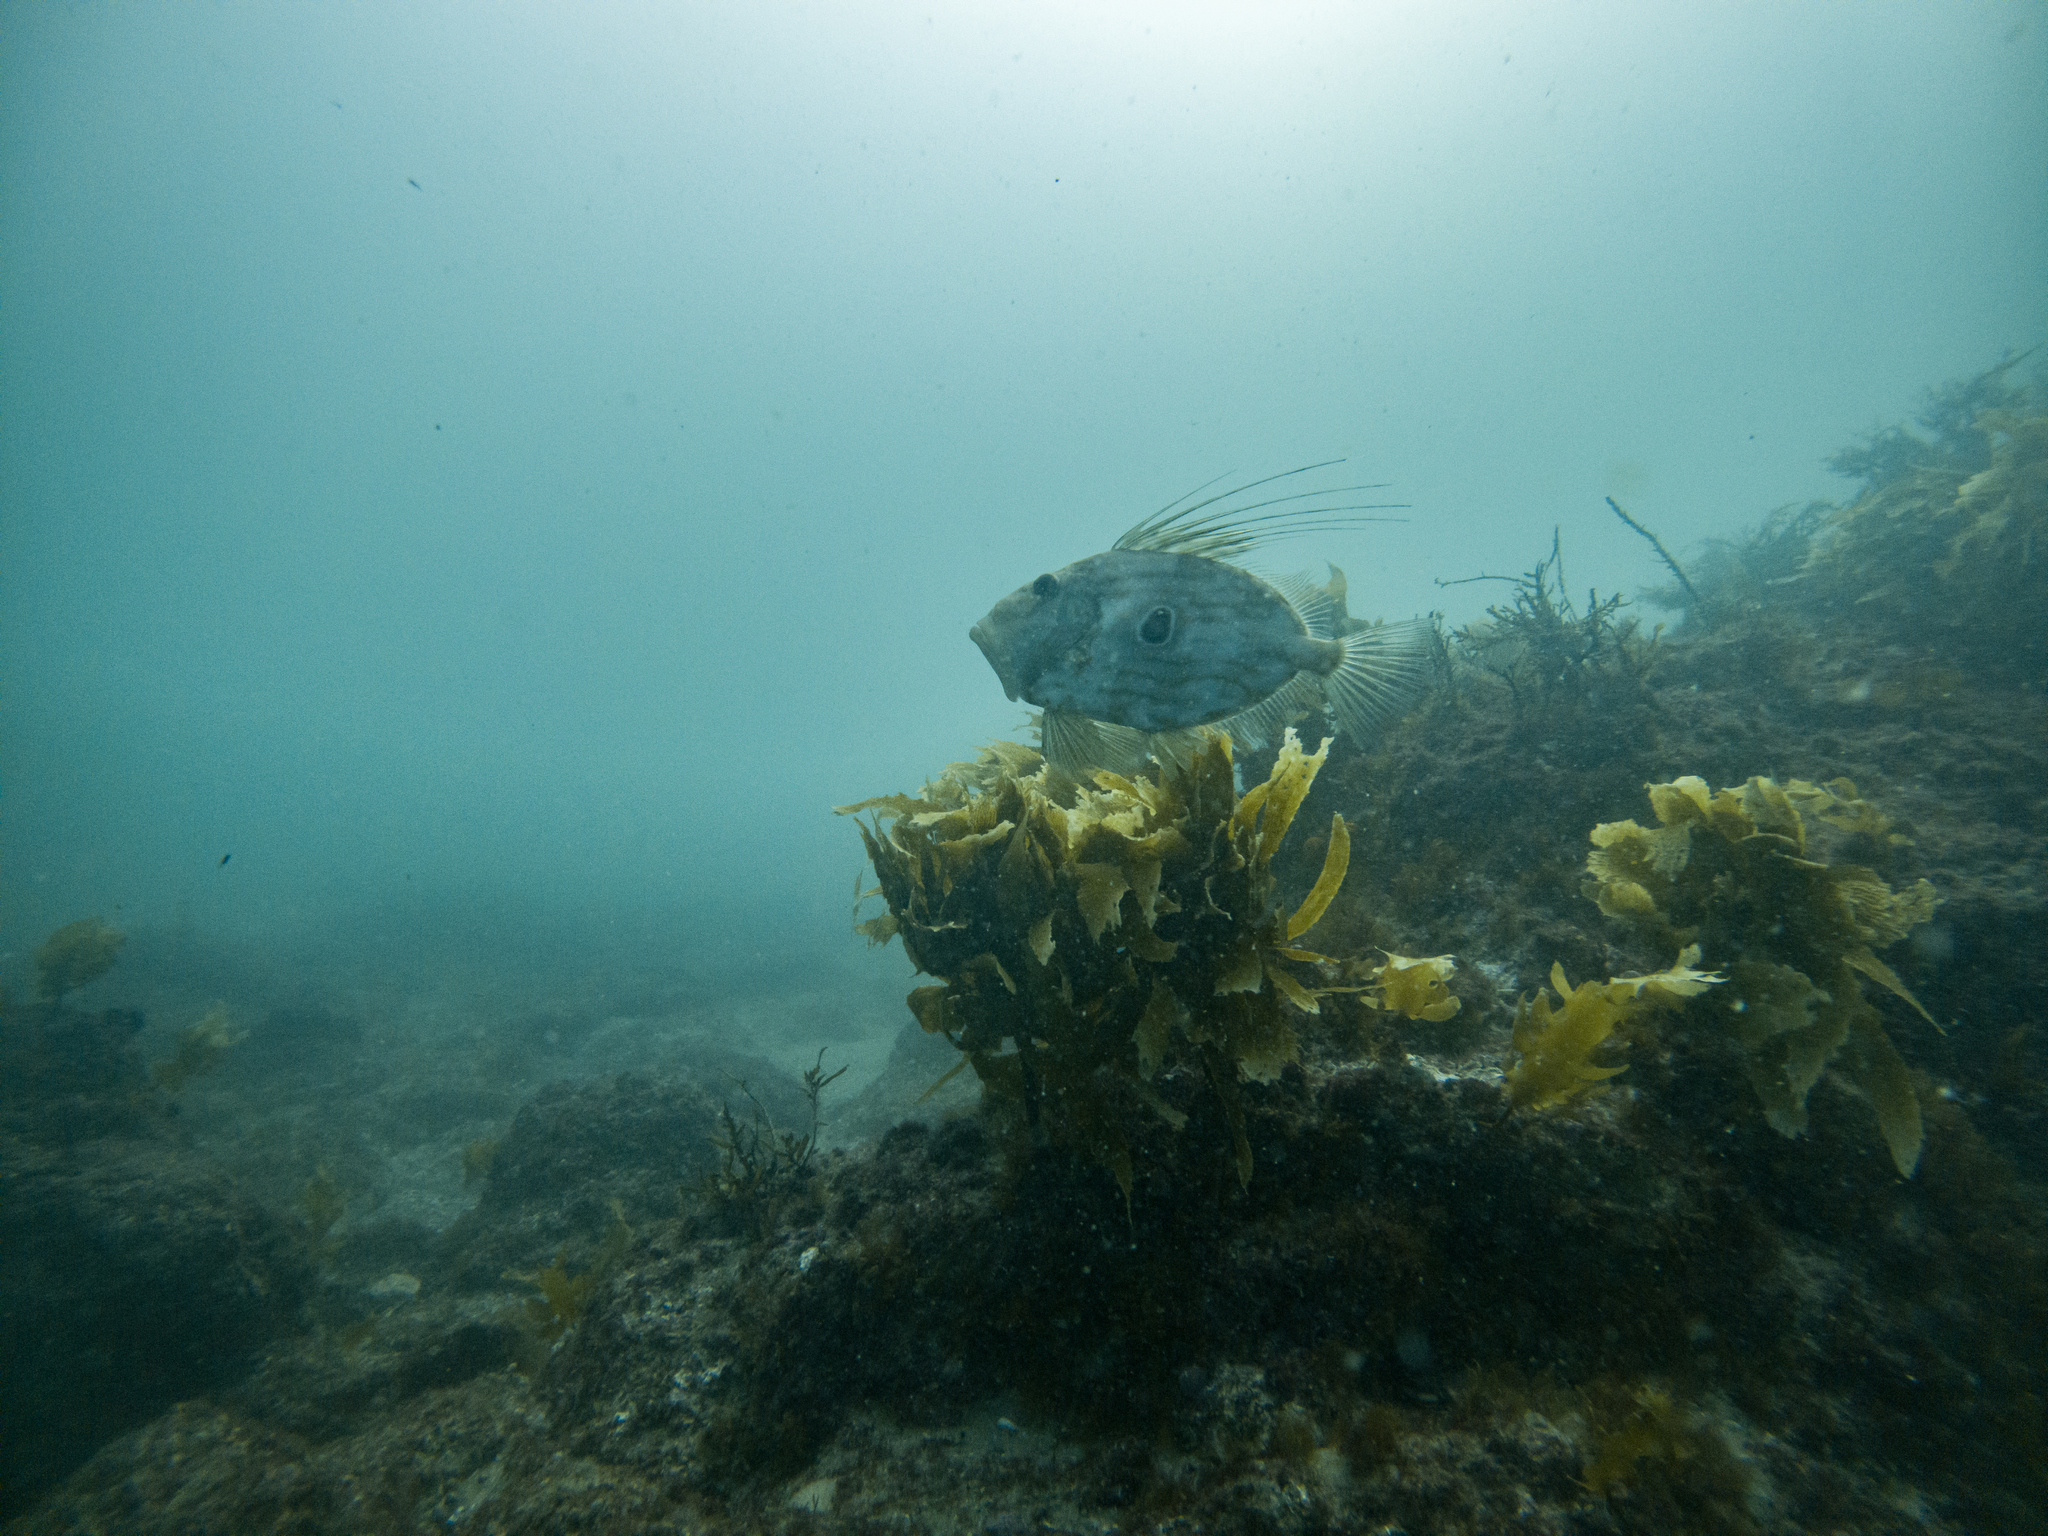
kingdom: Animalia
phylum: Chordata
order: Zeiformes
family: Zeidae
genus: Zeus
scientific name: Zeus faber
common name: John dory
